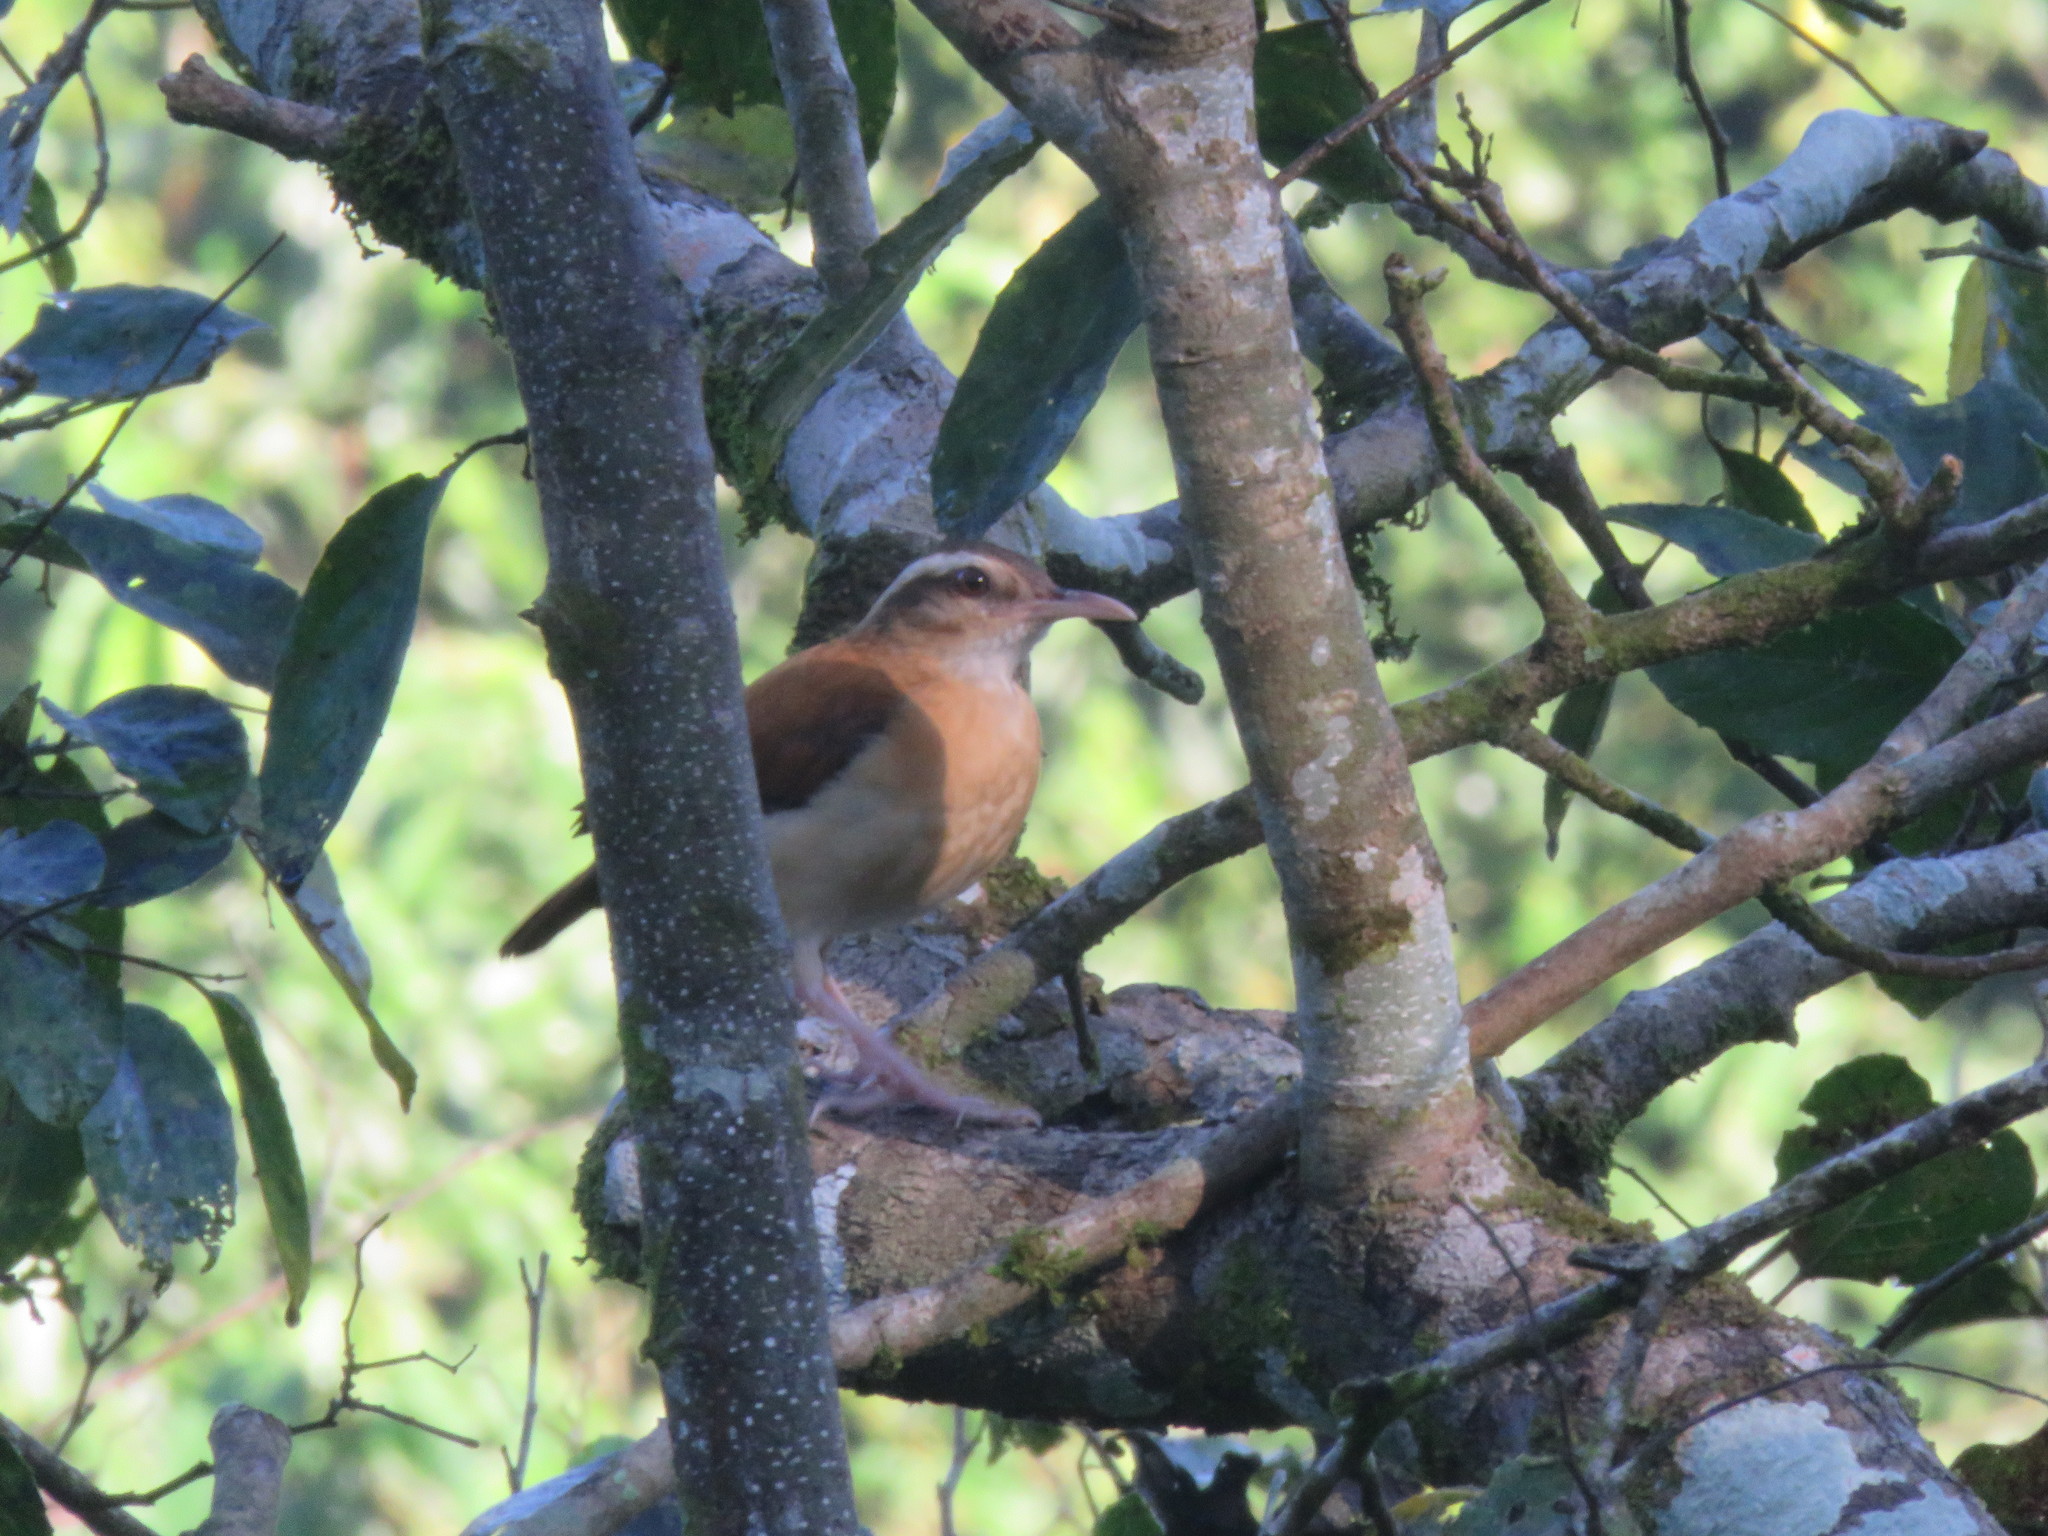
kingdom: Animalia
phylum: Chordata
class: Aves
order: Passeriformes
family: Furnariidae
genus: Furnarius
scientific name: Furnarius leucopus
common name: Pale-legged hornero
